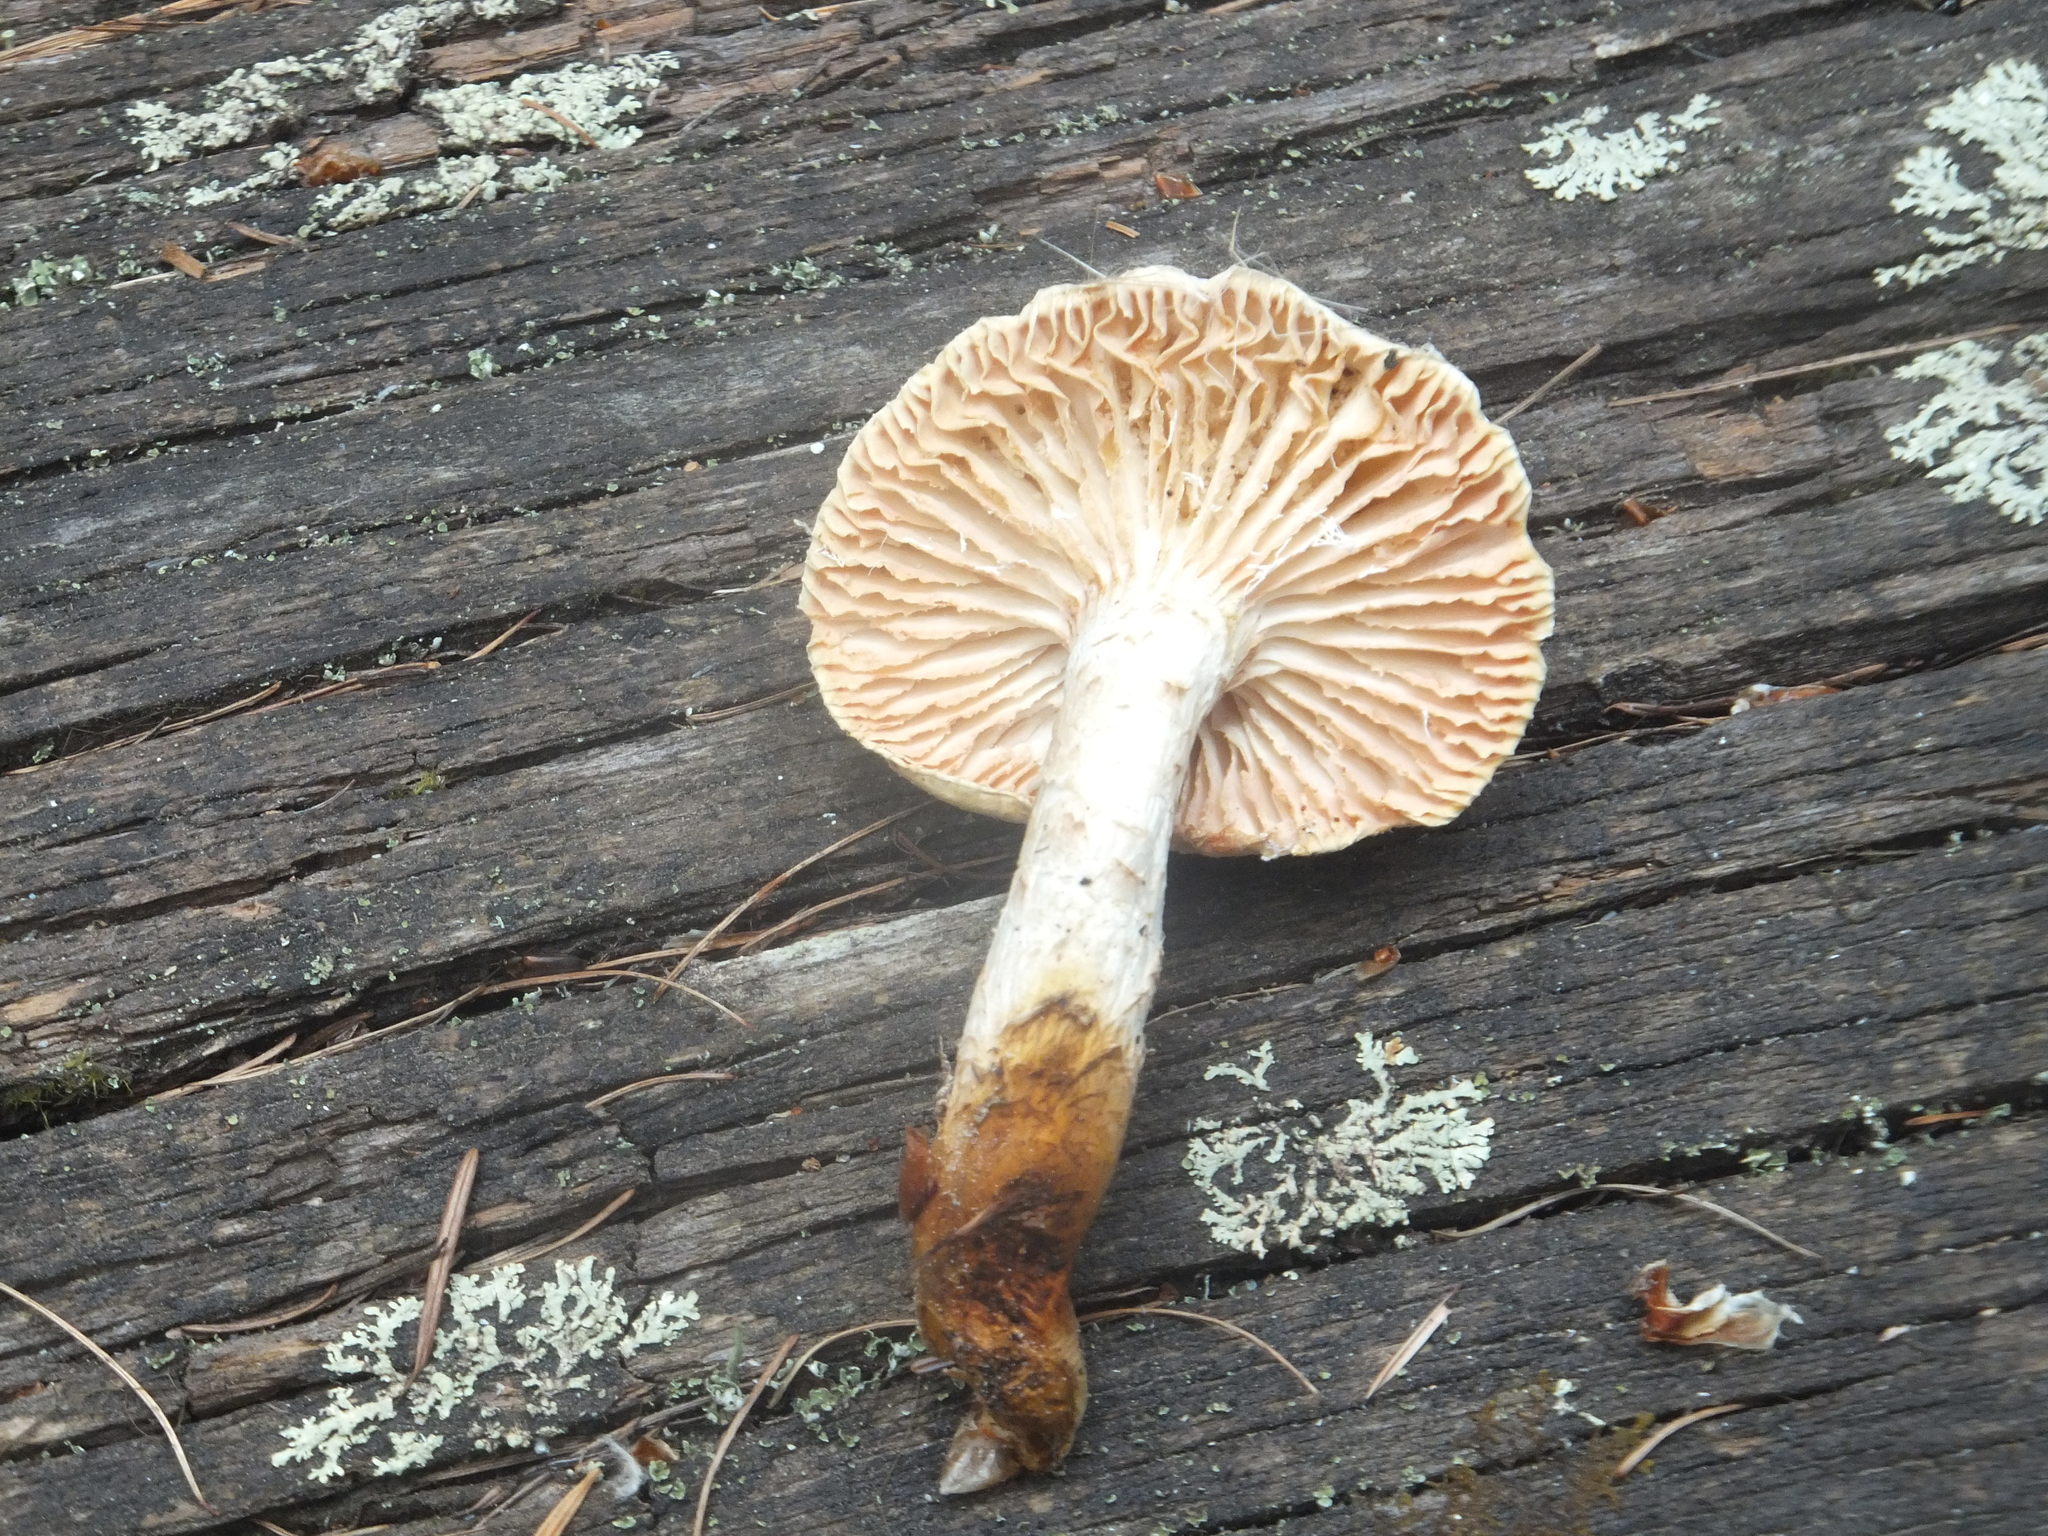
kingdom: Fungi
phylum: Basidiomycota
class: Agaricomycetes
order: Gloeophyllales
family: Gloeophyllaceae
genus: Neolentinus
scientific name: Neolentinus ponderosus
